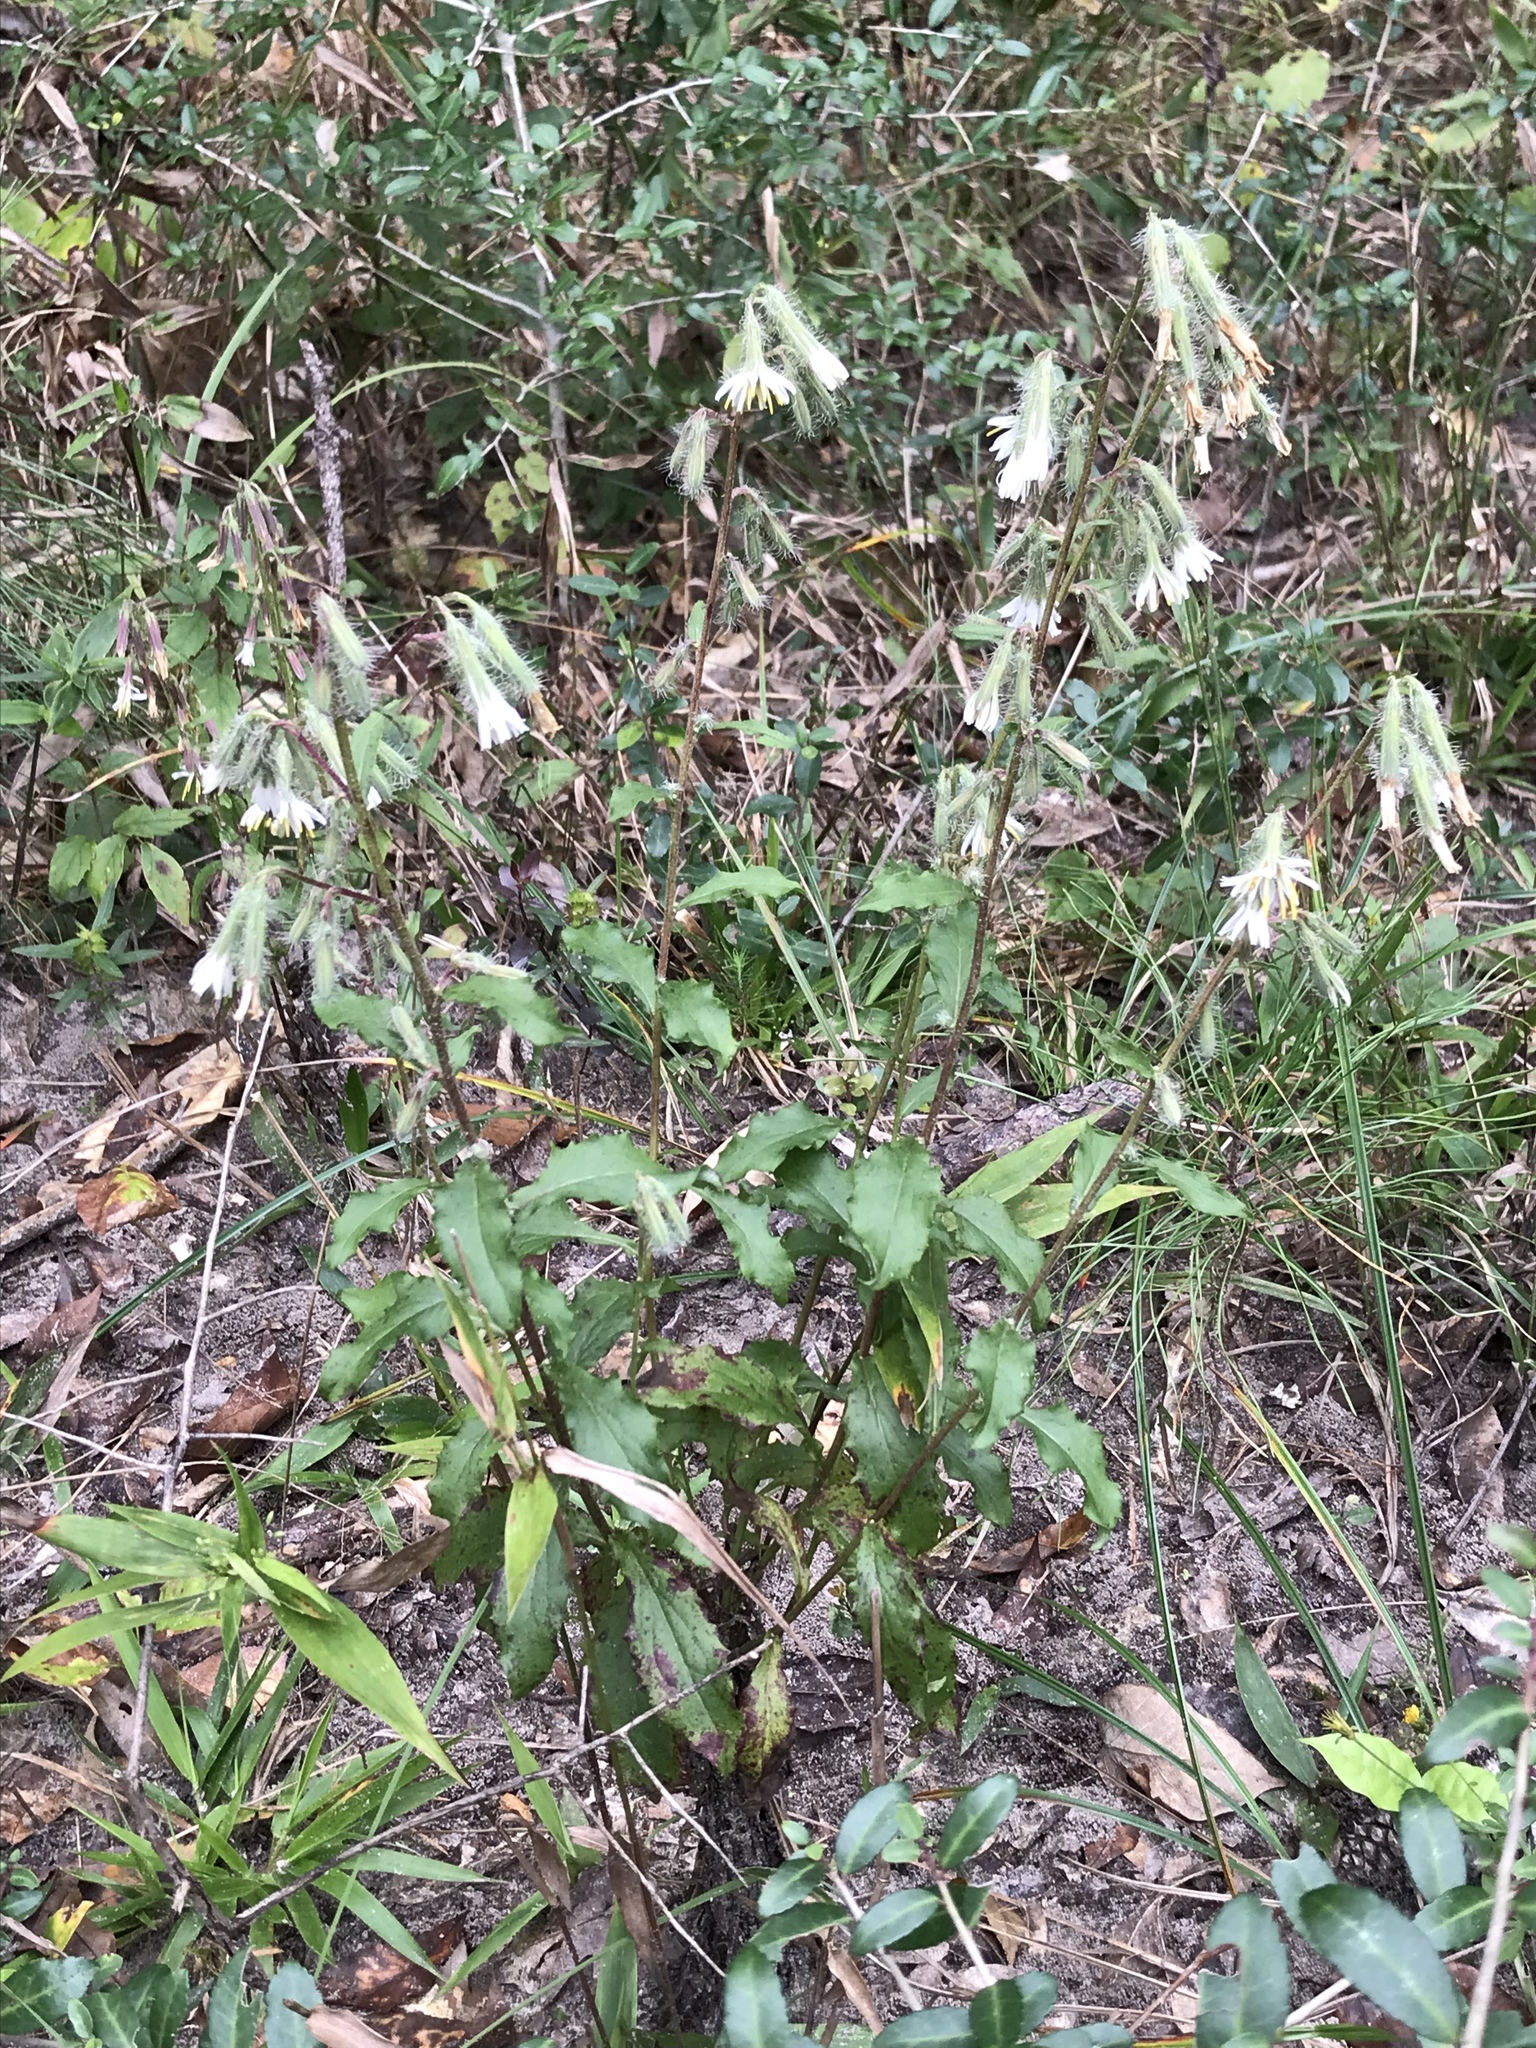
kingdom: Plantae
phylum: Tracheophyta
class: Magnoliopsida
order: Asterales
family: Asteraceae
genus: Nabalus
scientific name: Nabalus barbata
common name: Barbed rattlesnakeroot
